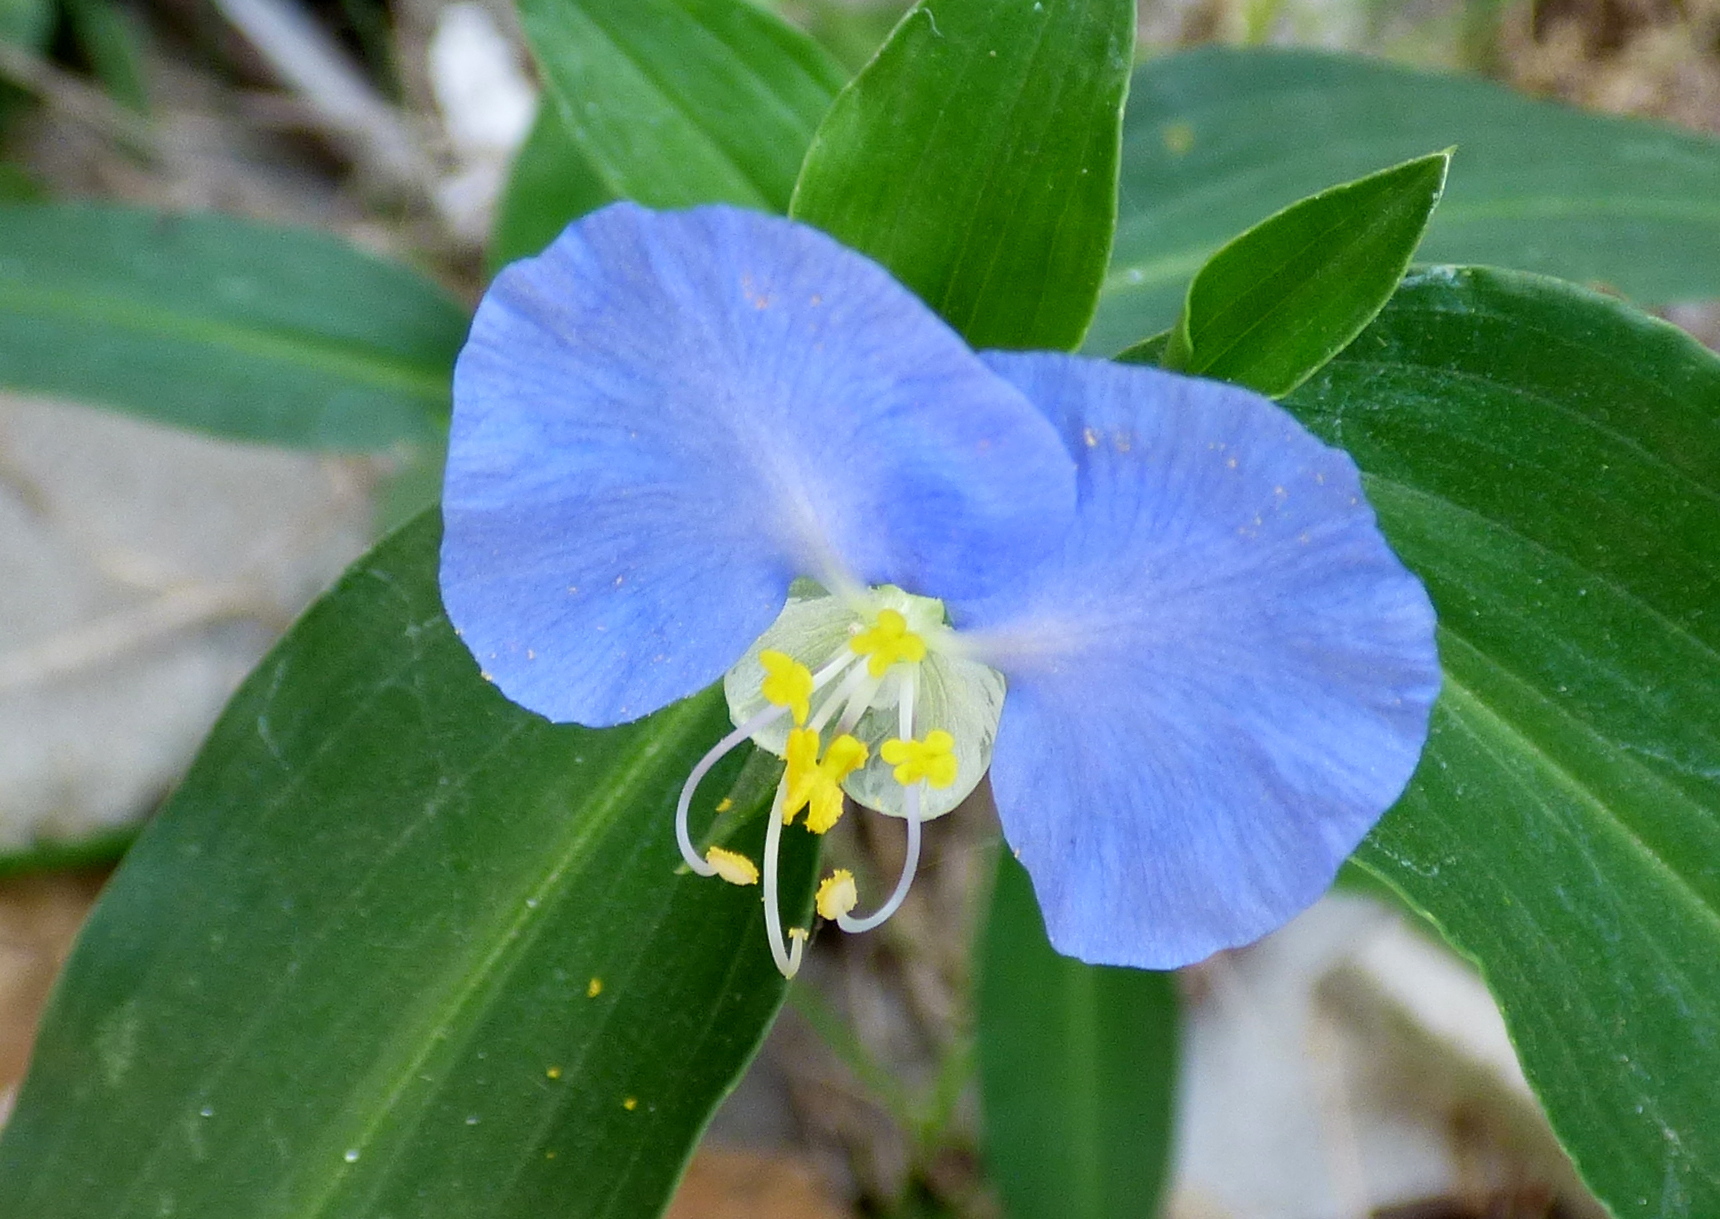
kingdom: Plantae
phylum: Tracheophyta
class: Liliopsida
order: Commelinales
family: Commelinaceae
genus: Commelina
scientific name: Commelina erecta
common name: Blousel blommetjie
